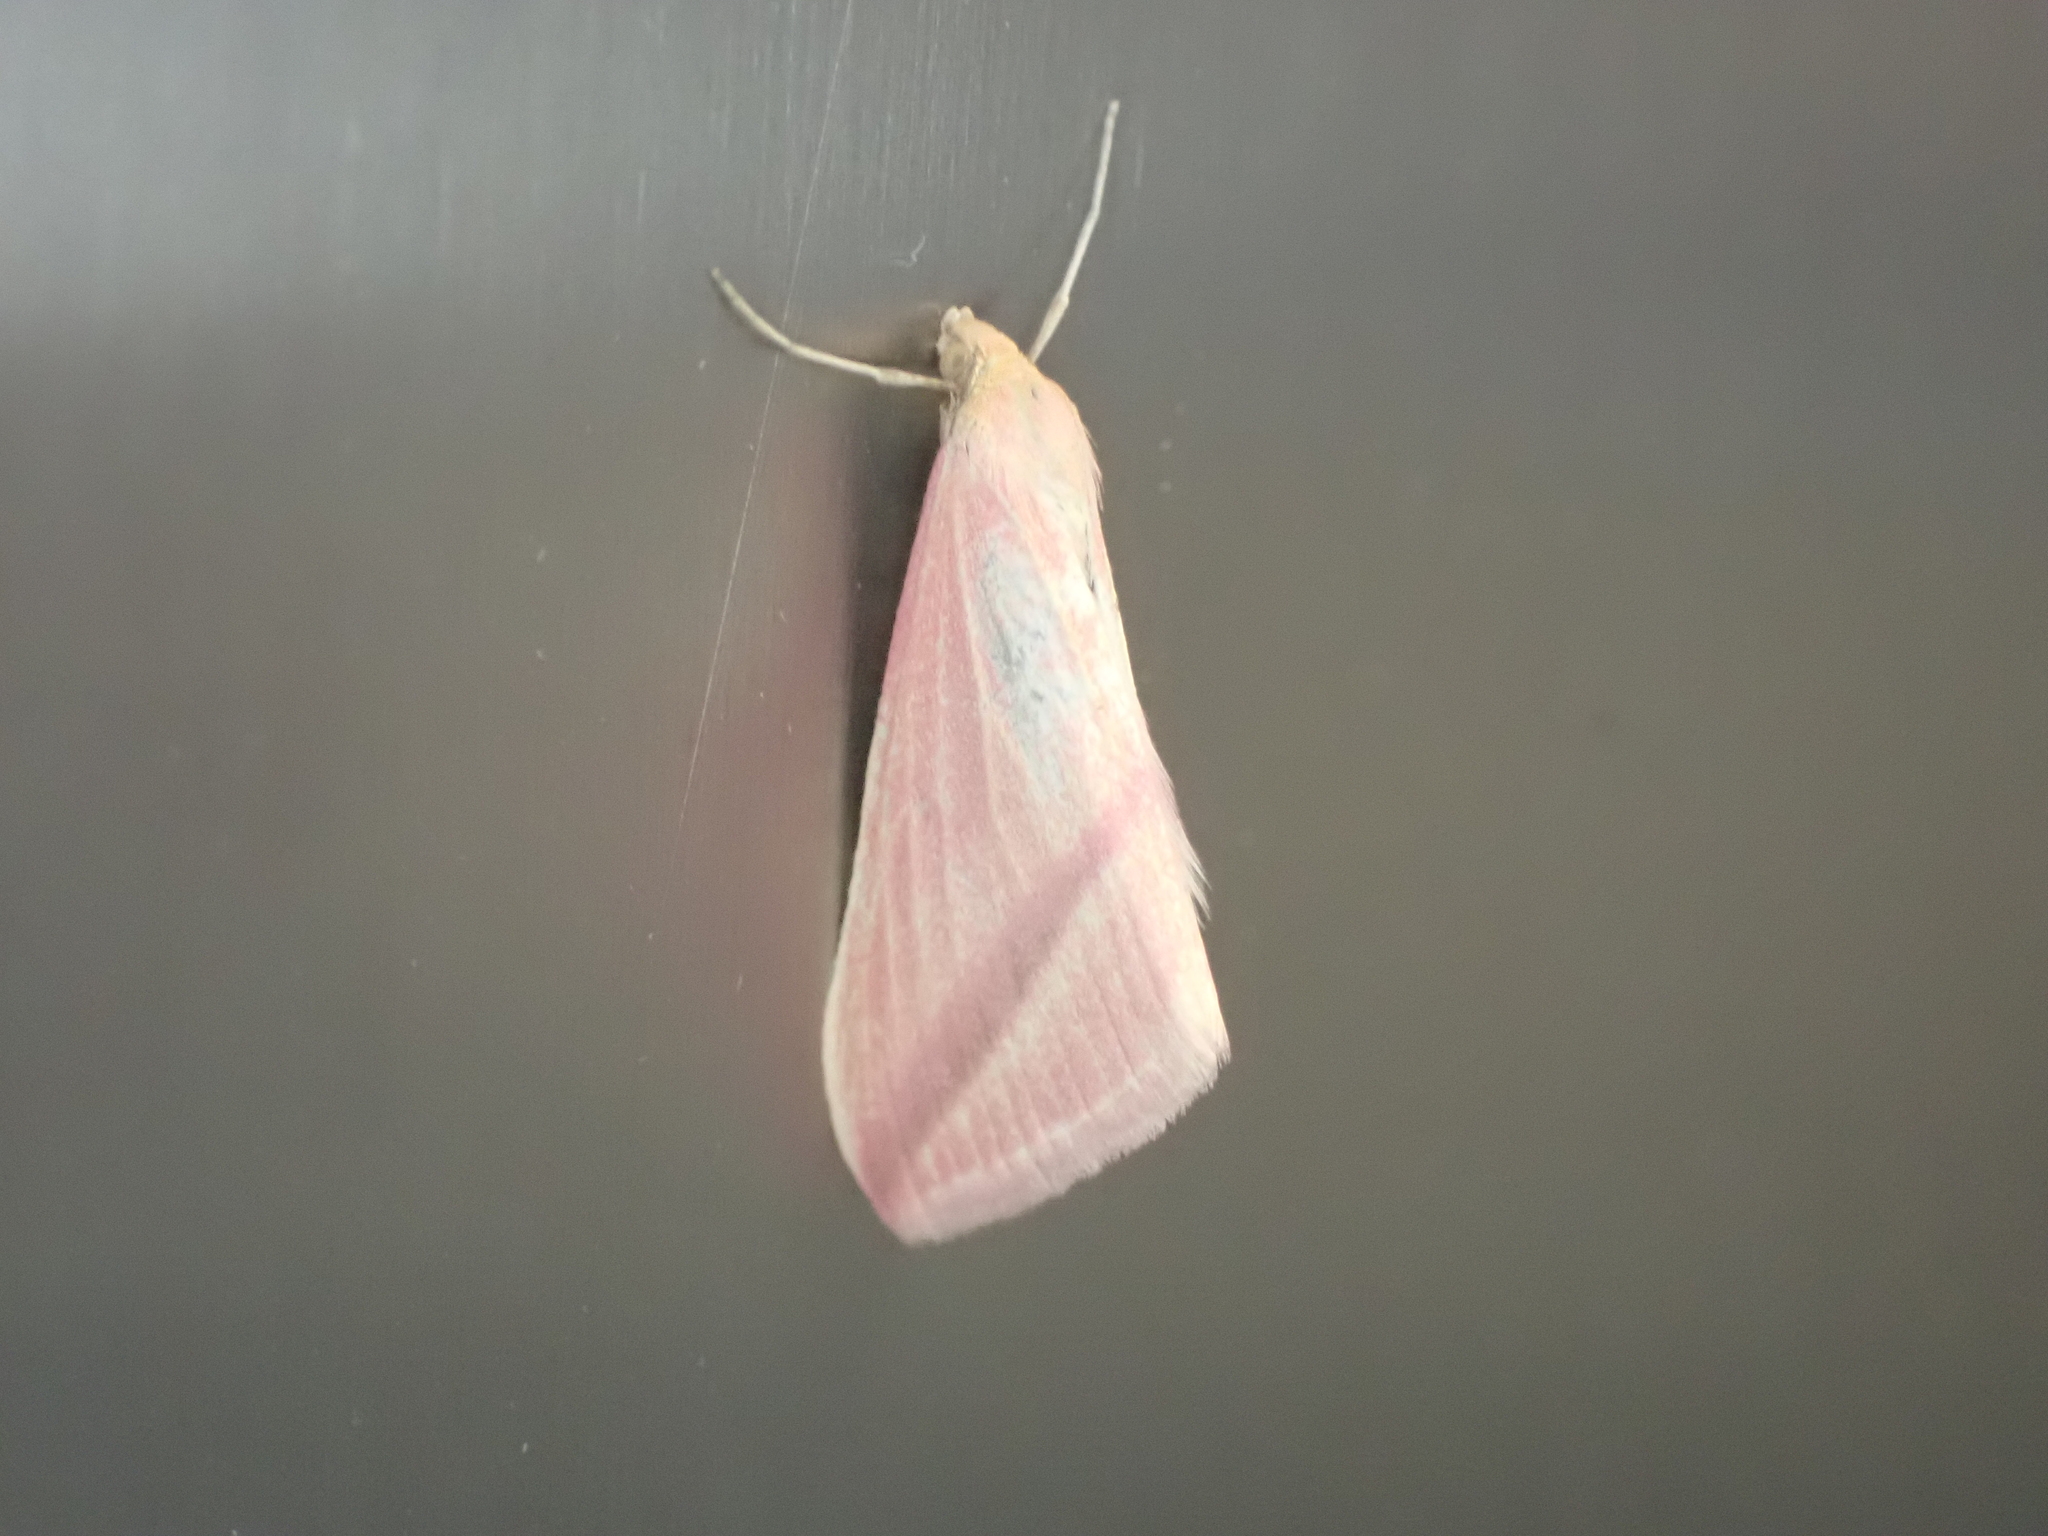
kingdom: Animalia
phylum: Arthropoda
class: Insecta
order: Lepidoptera
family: Geometridae
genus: Rhodometra
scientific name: Rhodometra sacraria
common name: Vestal
